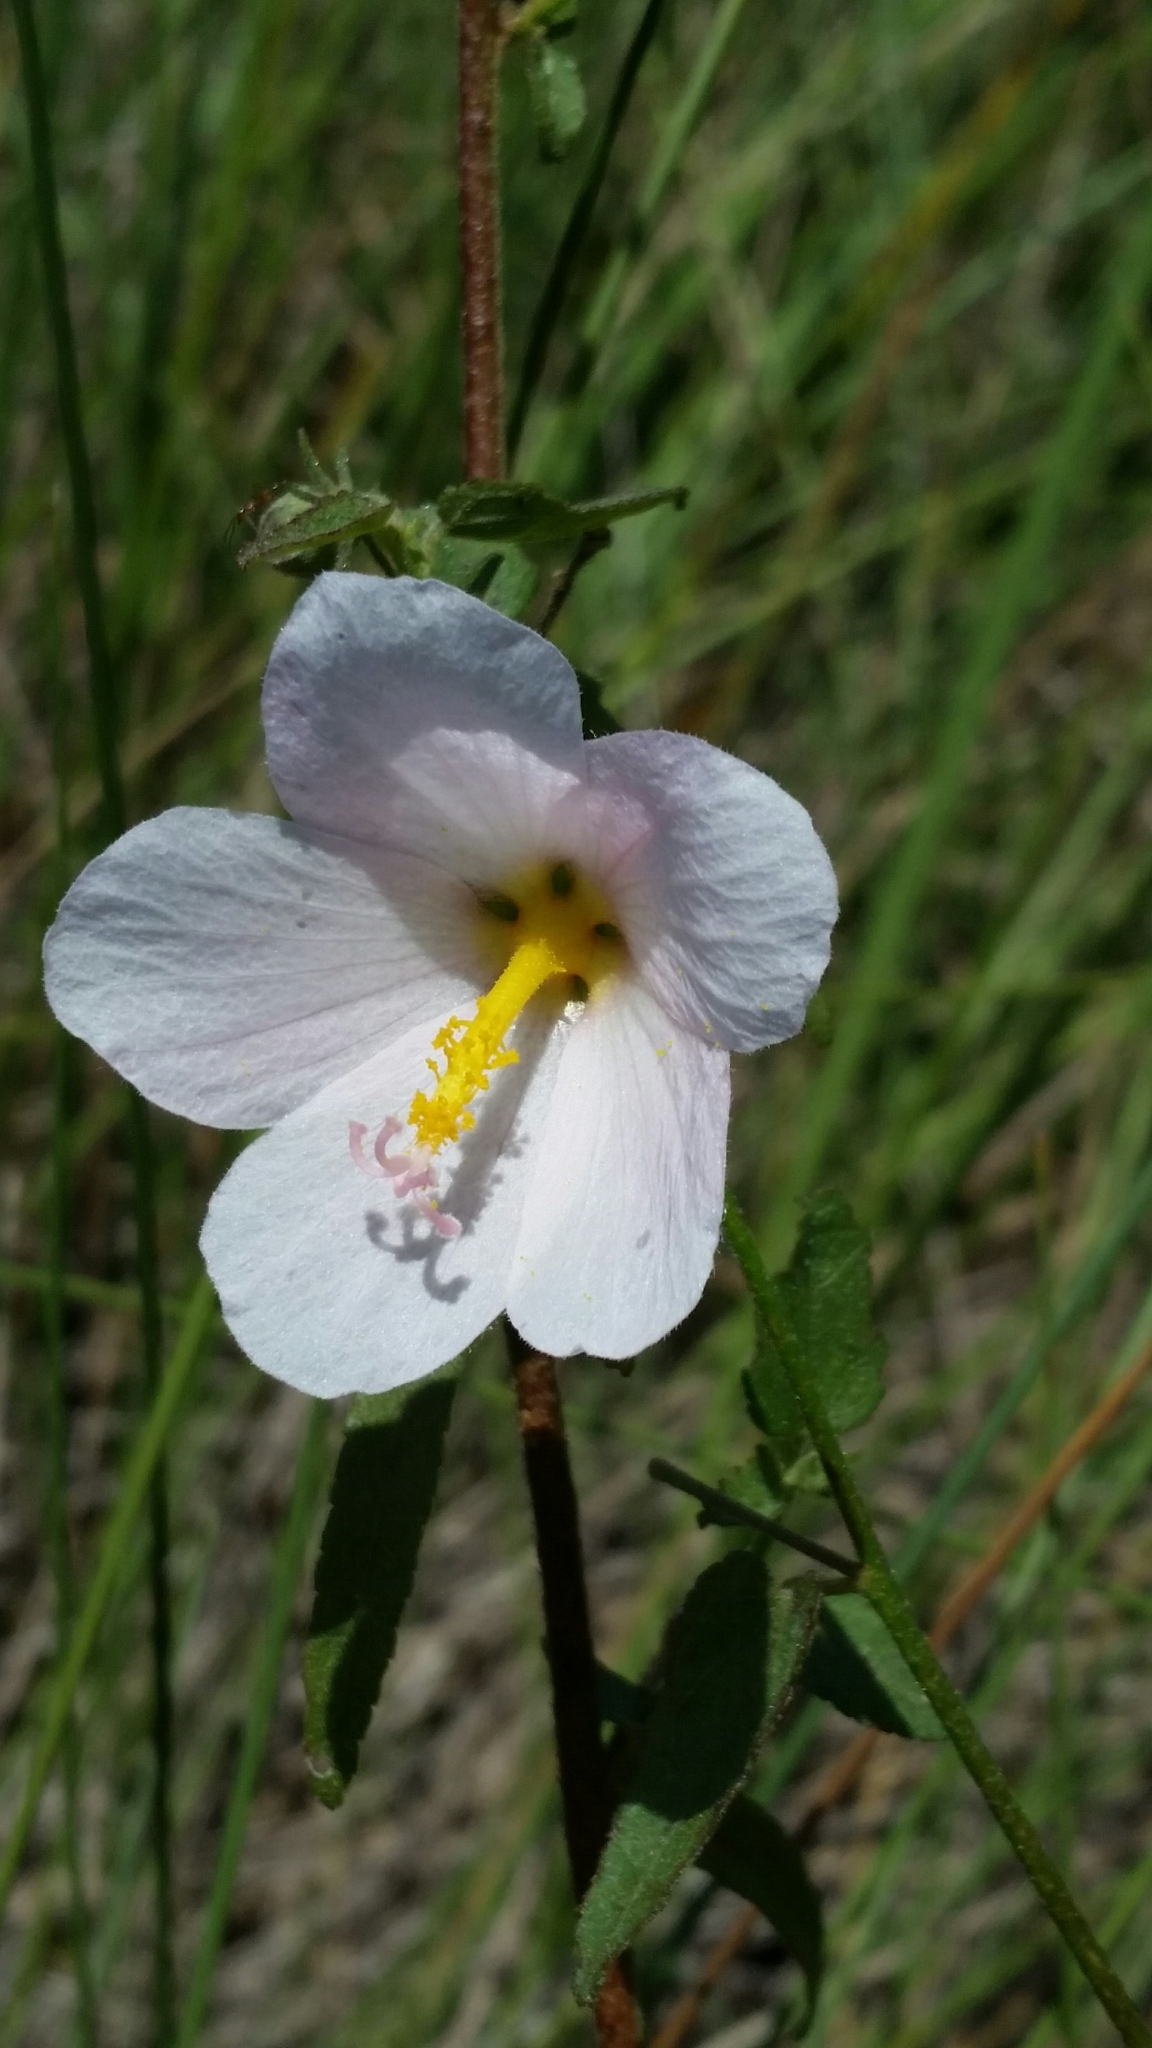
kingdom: Plantae
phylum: Tracheophyta
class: Magnoliopsida
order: Malvales
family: Malvaceae
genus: Kosteletzkya
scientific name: Kosteletzkya pentacarpos
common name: Virginia saltmarsh mallow
